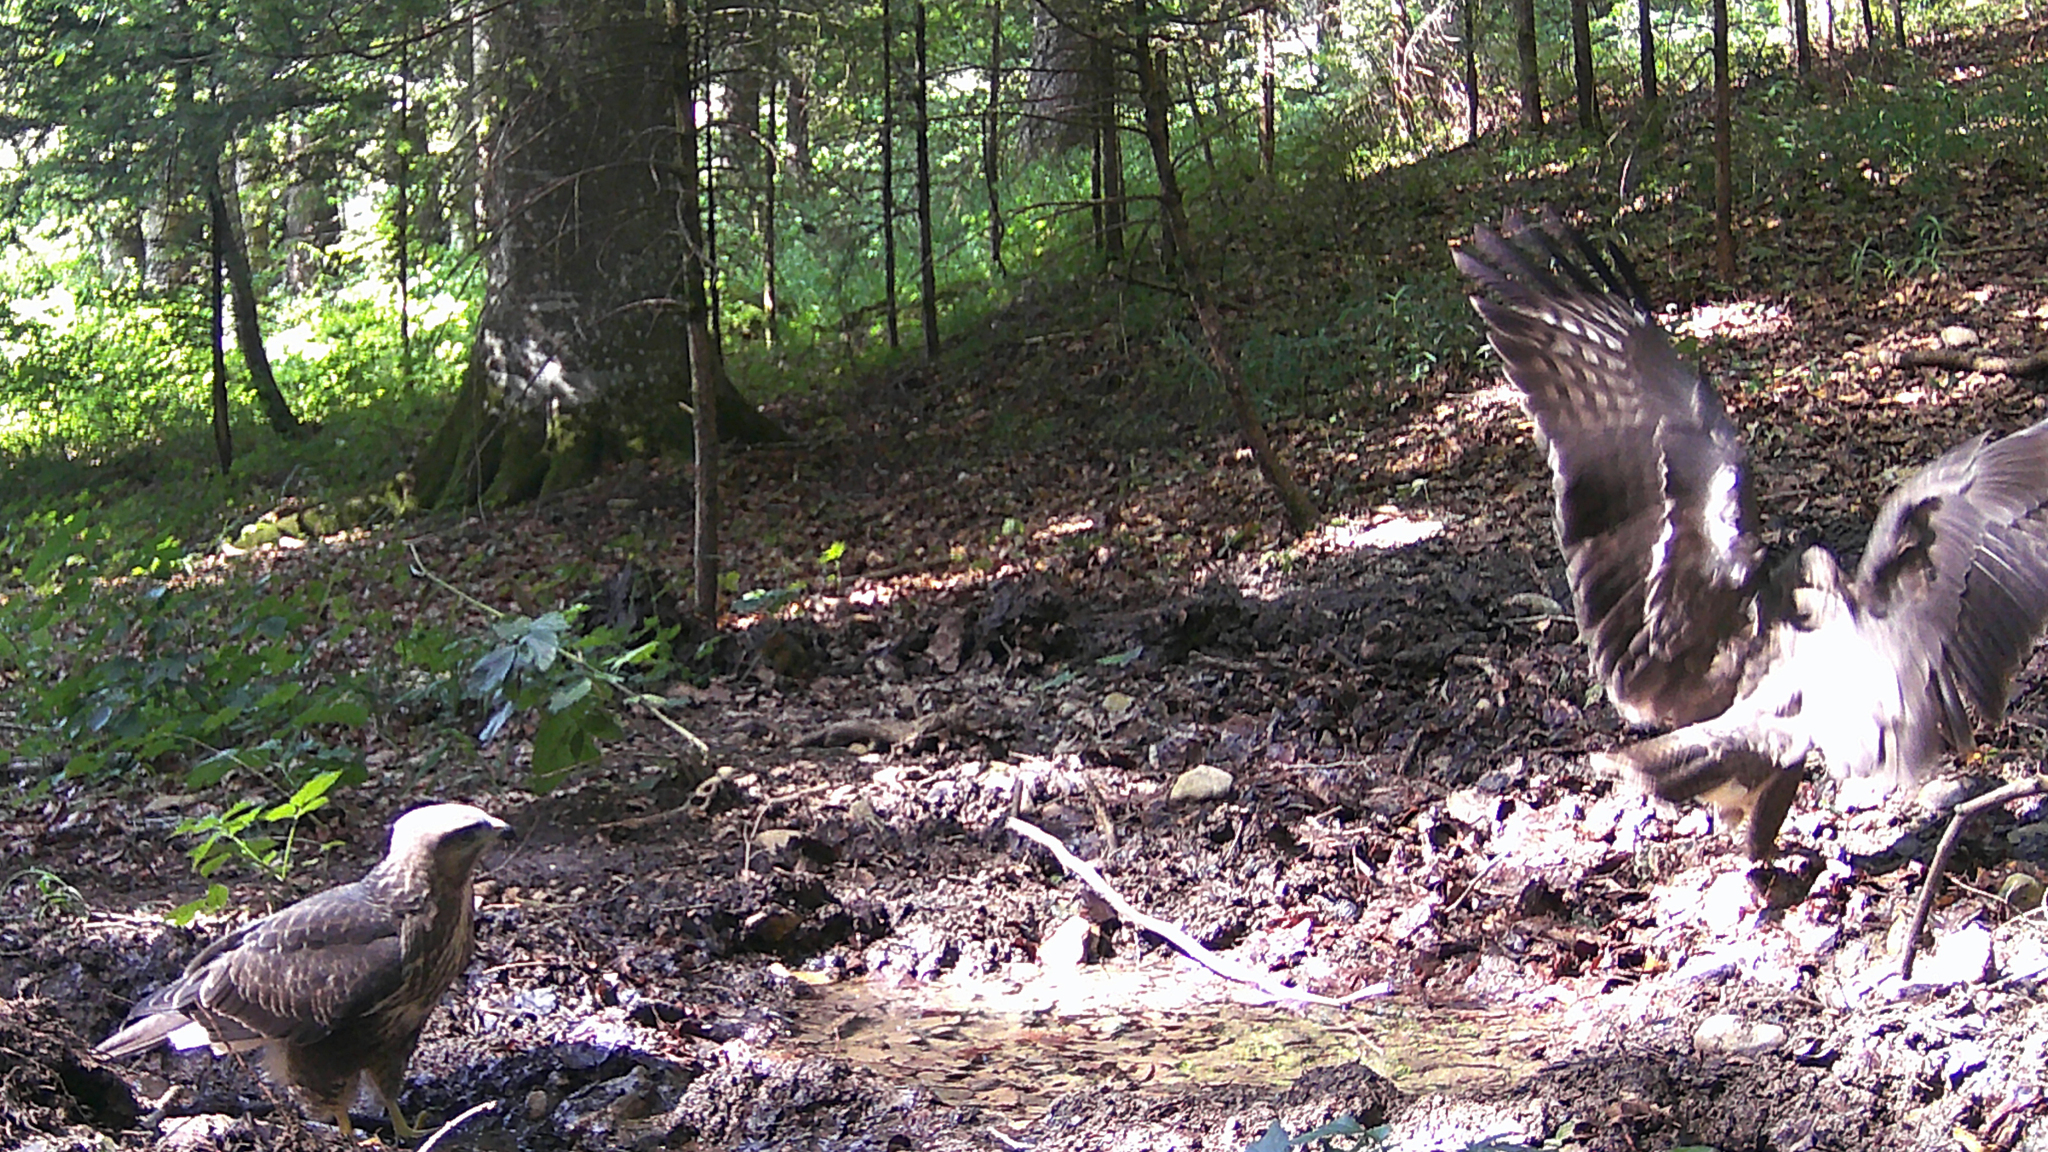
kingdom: Animalia
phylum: Chordata
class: Aves
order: Accipitriformes
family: Accipitridae
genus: Buteo
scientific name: Buteo buteo
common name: Common buzzard
